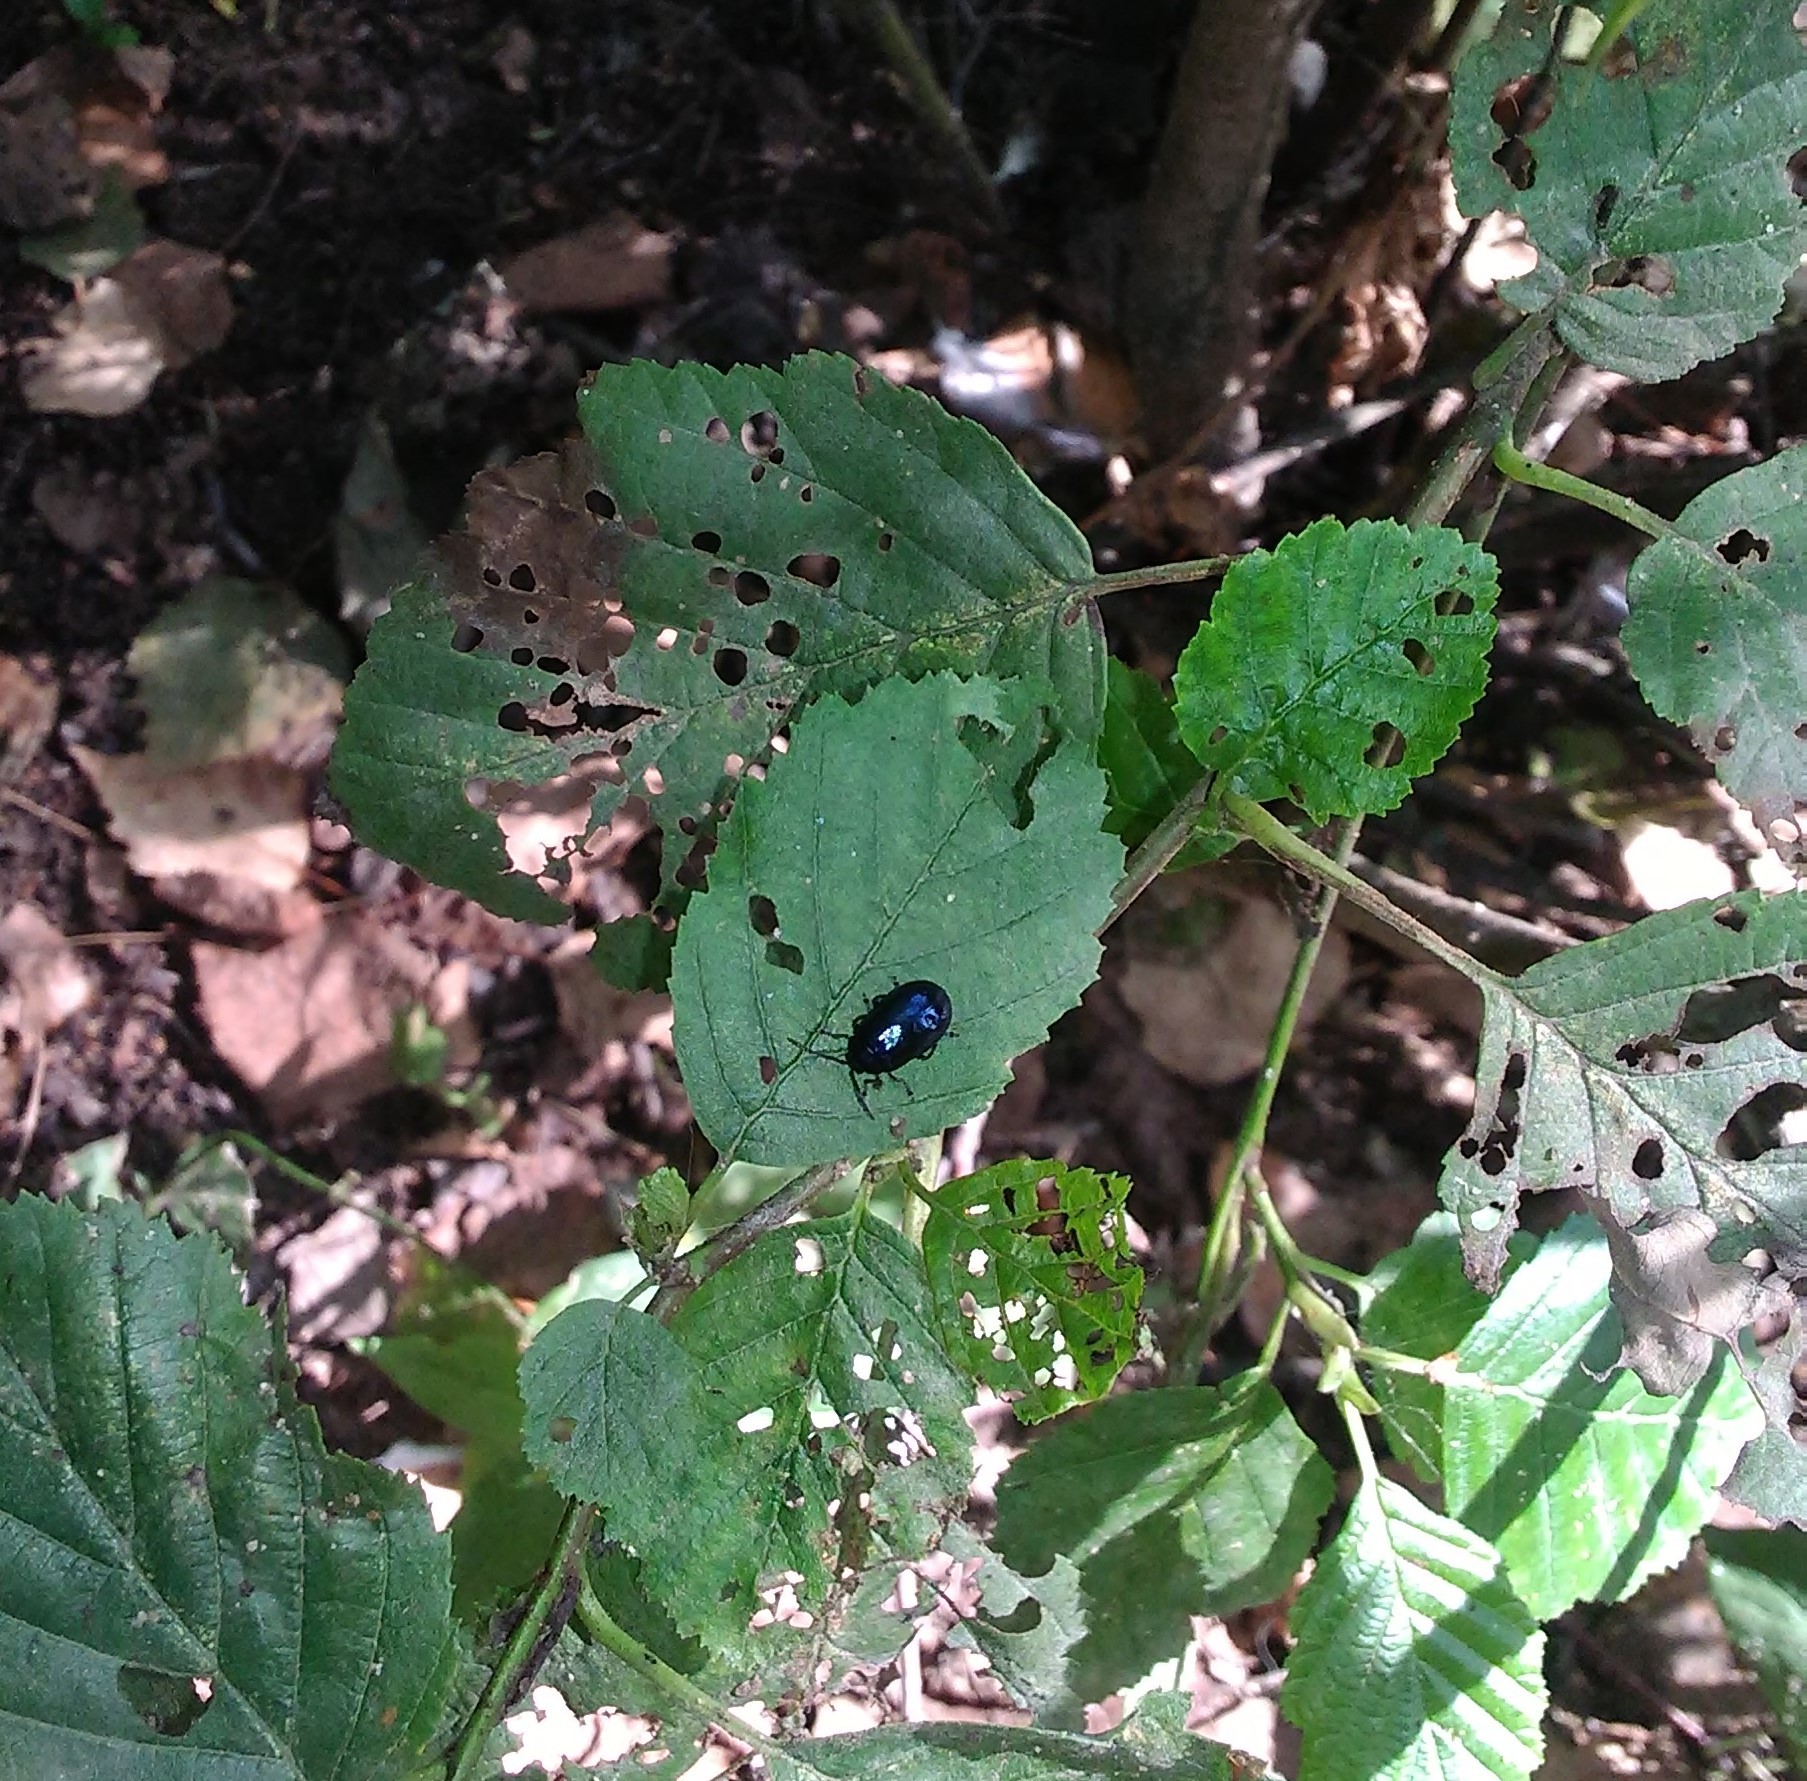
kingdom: Animalia
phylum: Arthropoda
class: Insecta
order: Coleoptera
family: Chrysomelidae
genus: Agelastica
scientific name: Agelastica alni
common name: Alder leaf beetle
